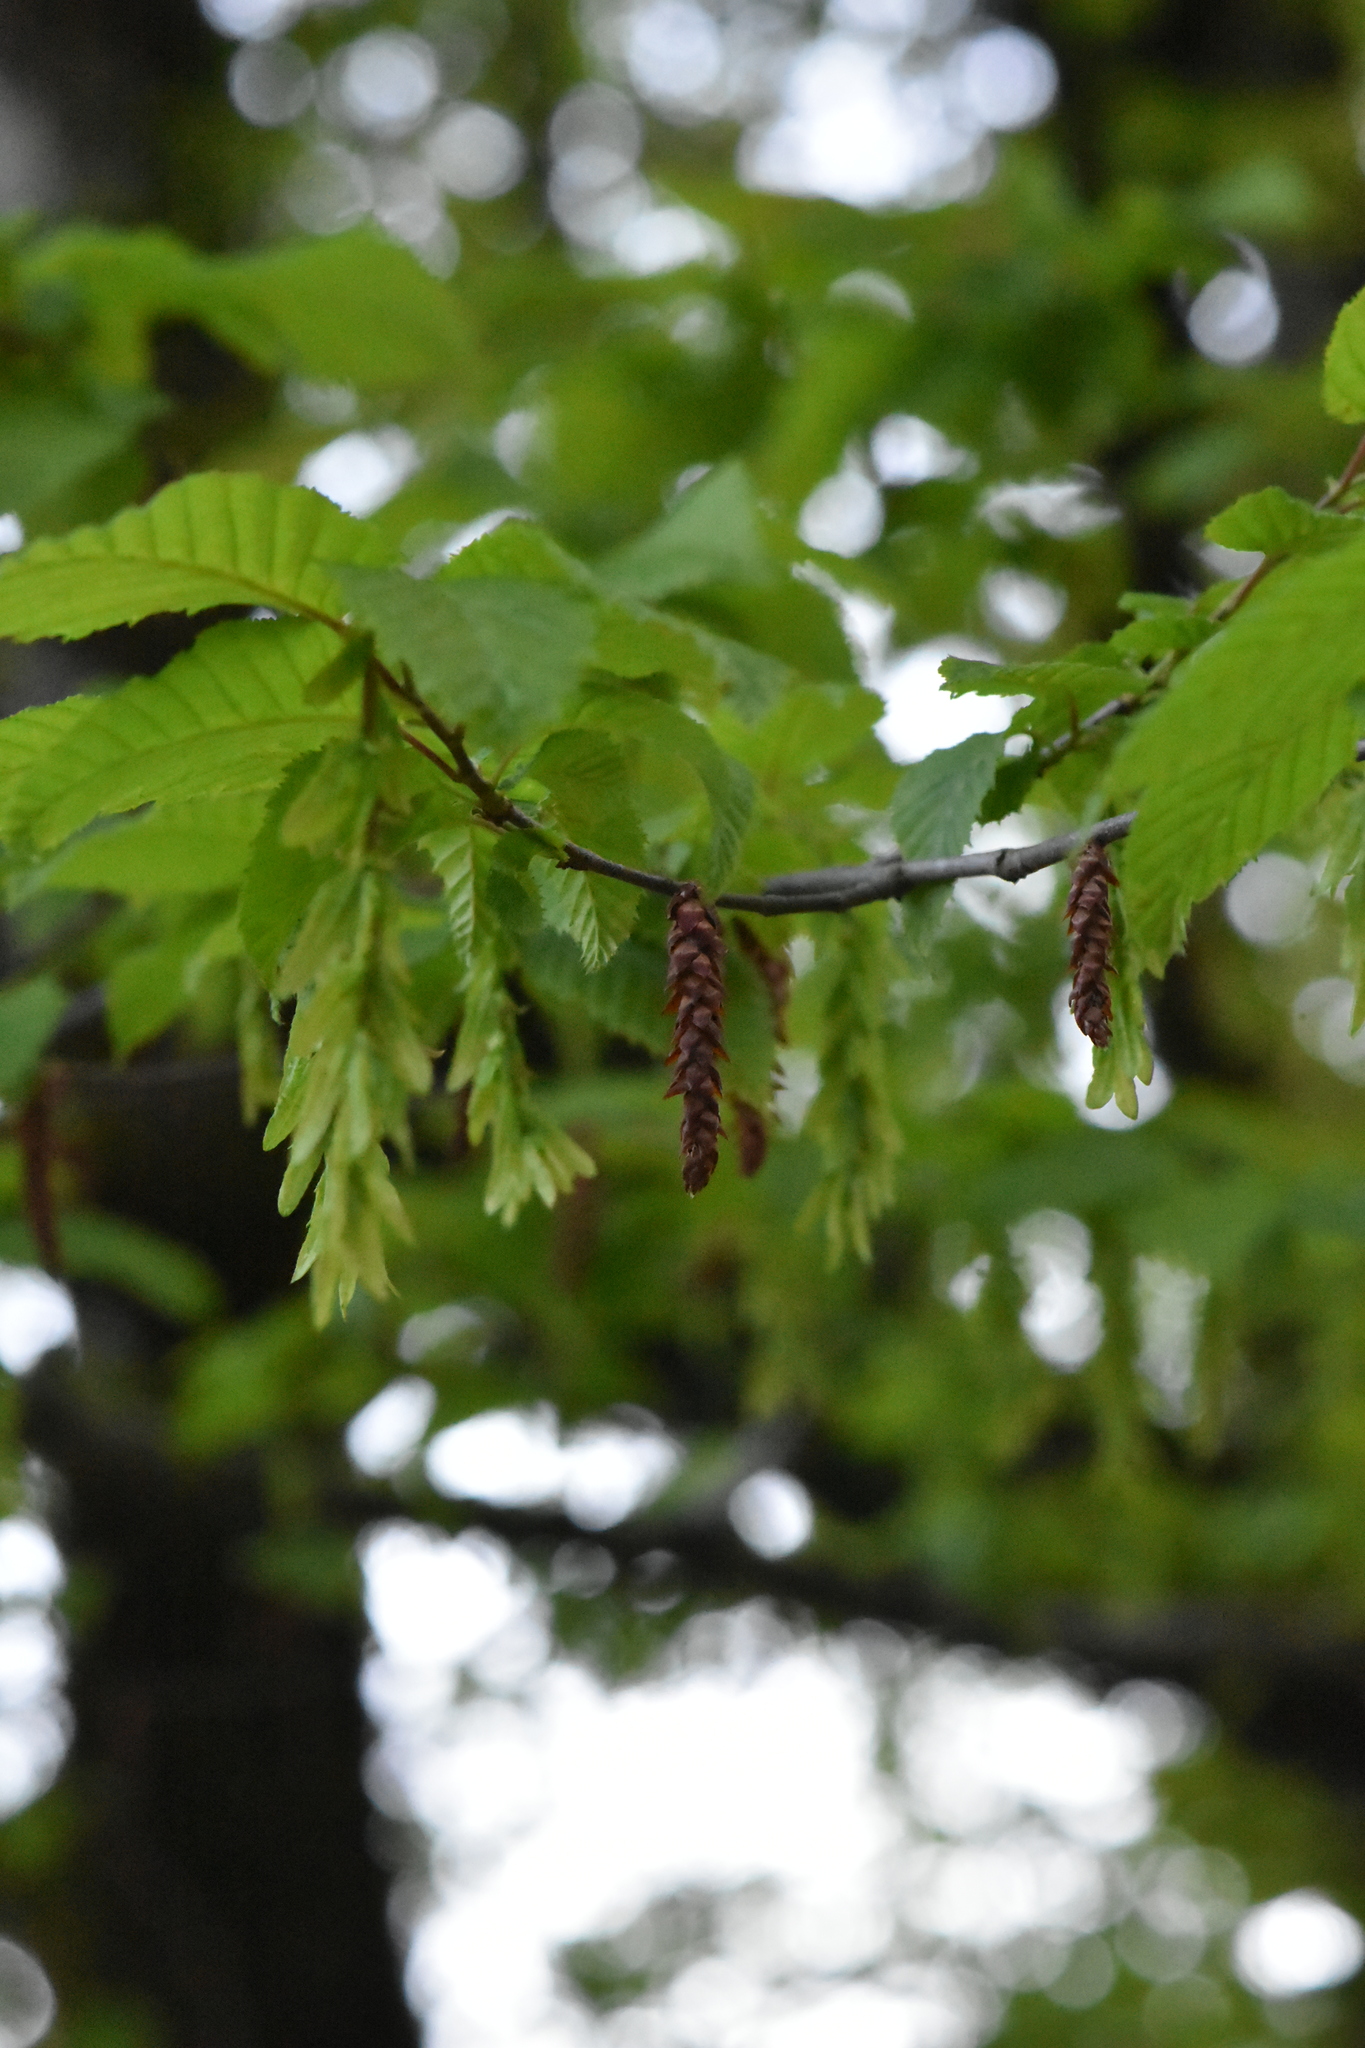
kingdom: Plantae
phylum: Tracheophyta
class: Magnoliopsida
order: Fagales
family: Betulaceae
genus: Carpinus
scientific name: Carpinus betulus
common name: Hornbeam
